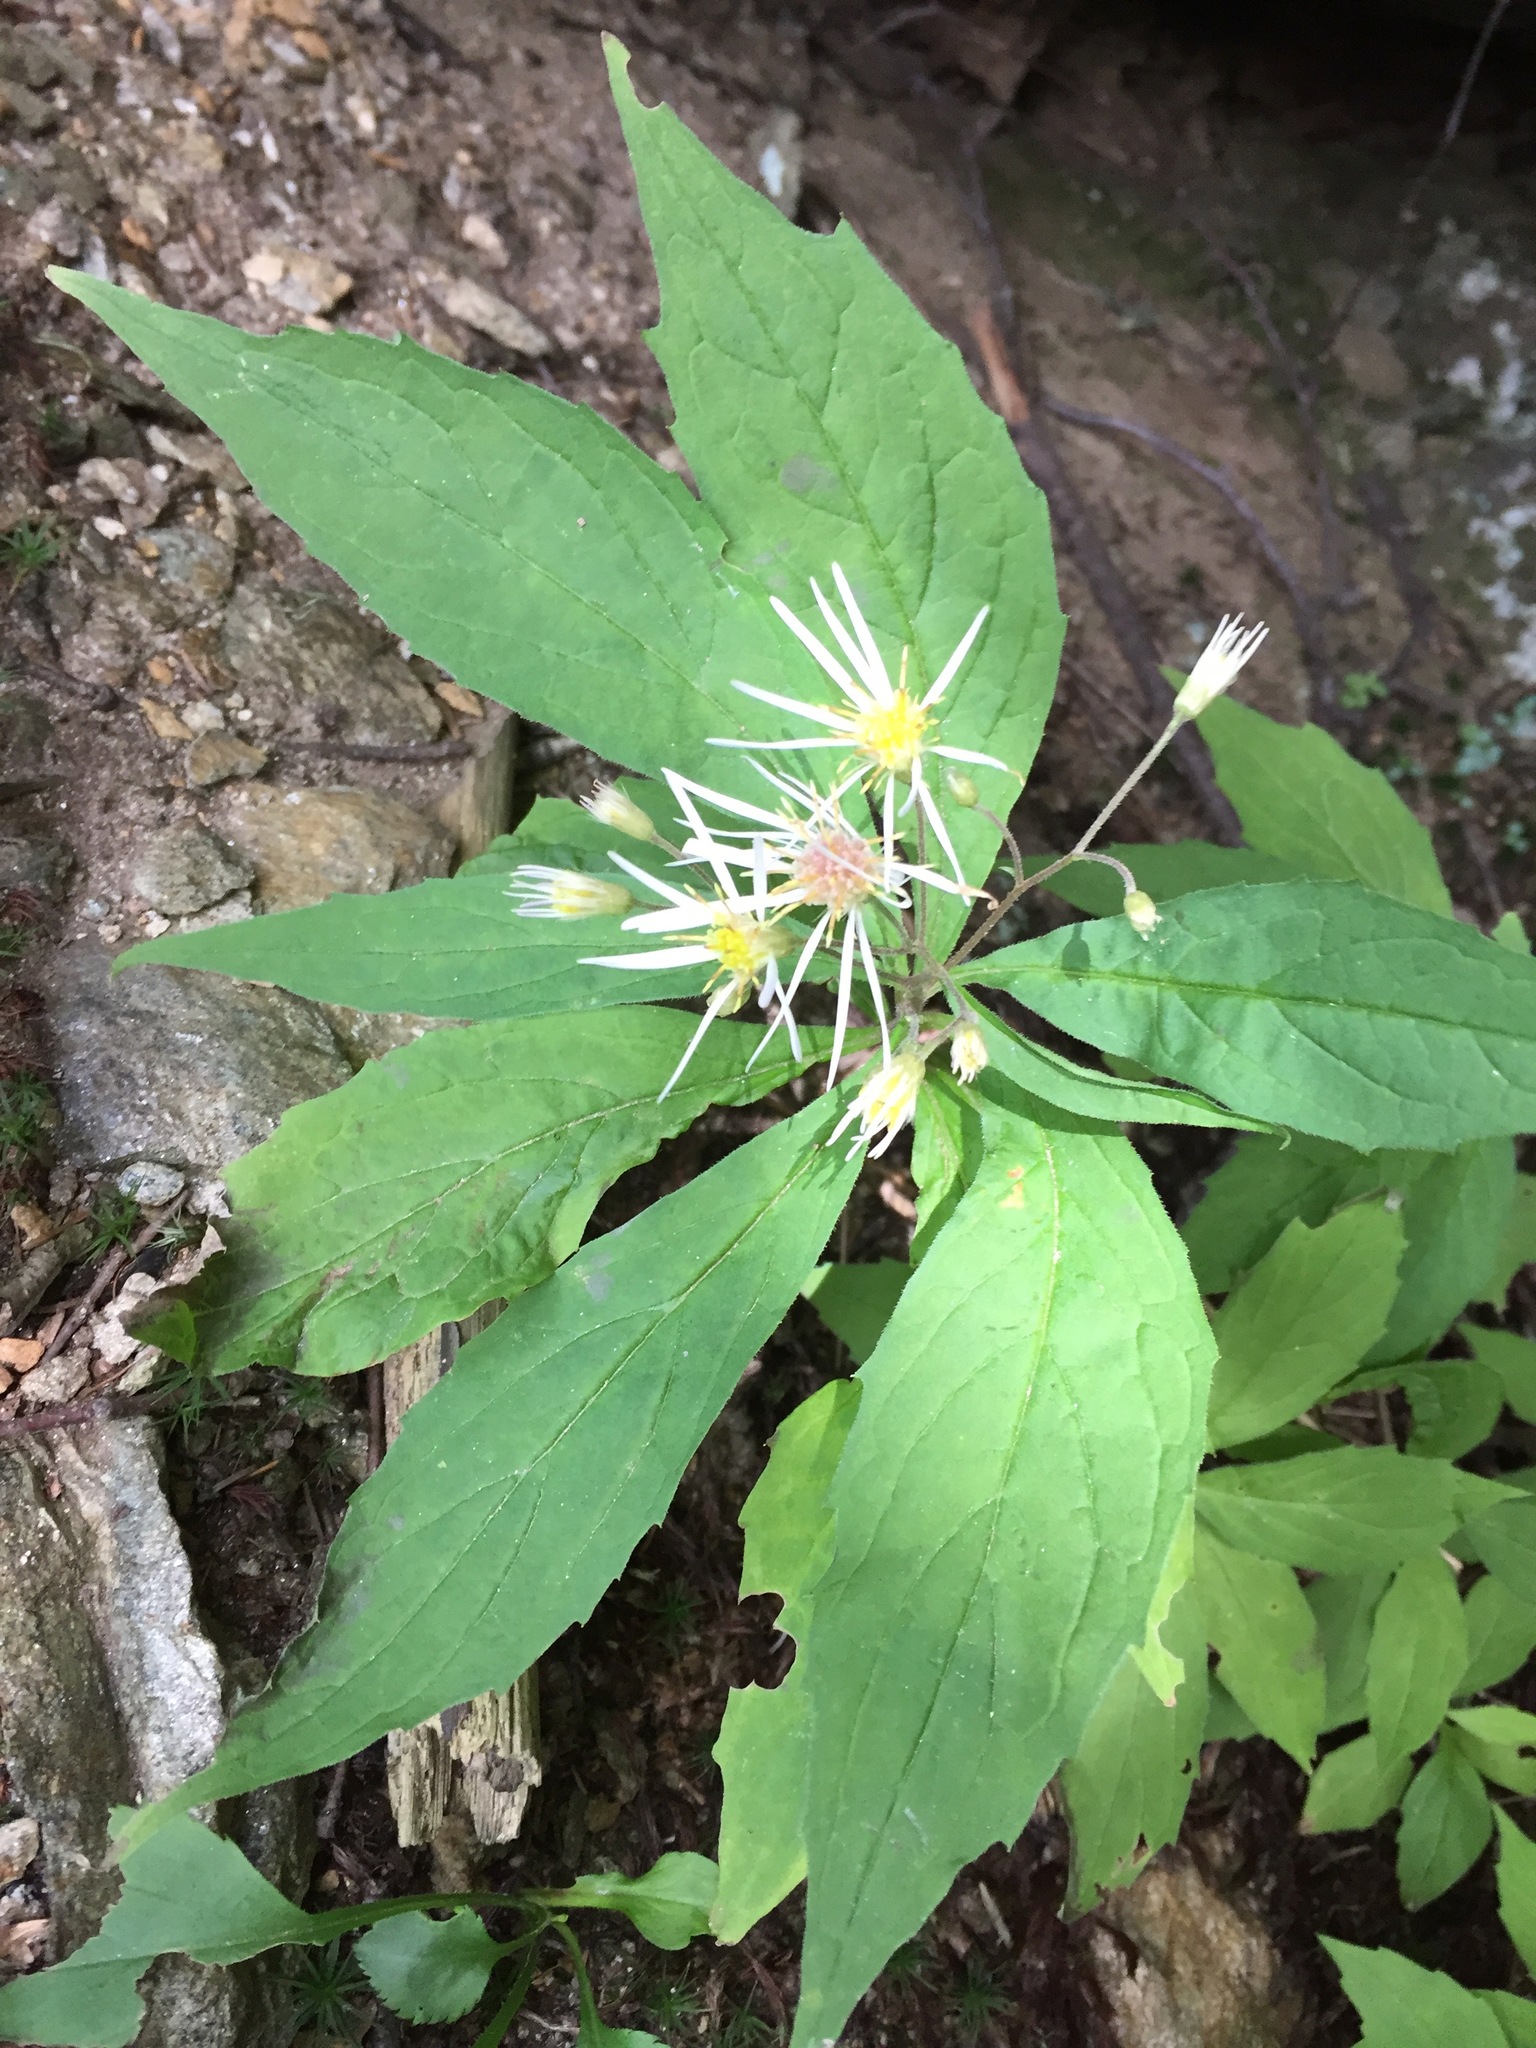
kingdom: Plantae
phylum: Tracheophyta
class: Magnoliopsida
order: Asterales
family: Asteraceae
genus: Oclemena
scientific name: Oclemena acuminata
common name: Mountain aster
